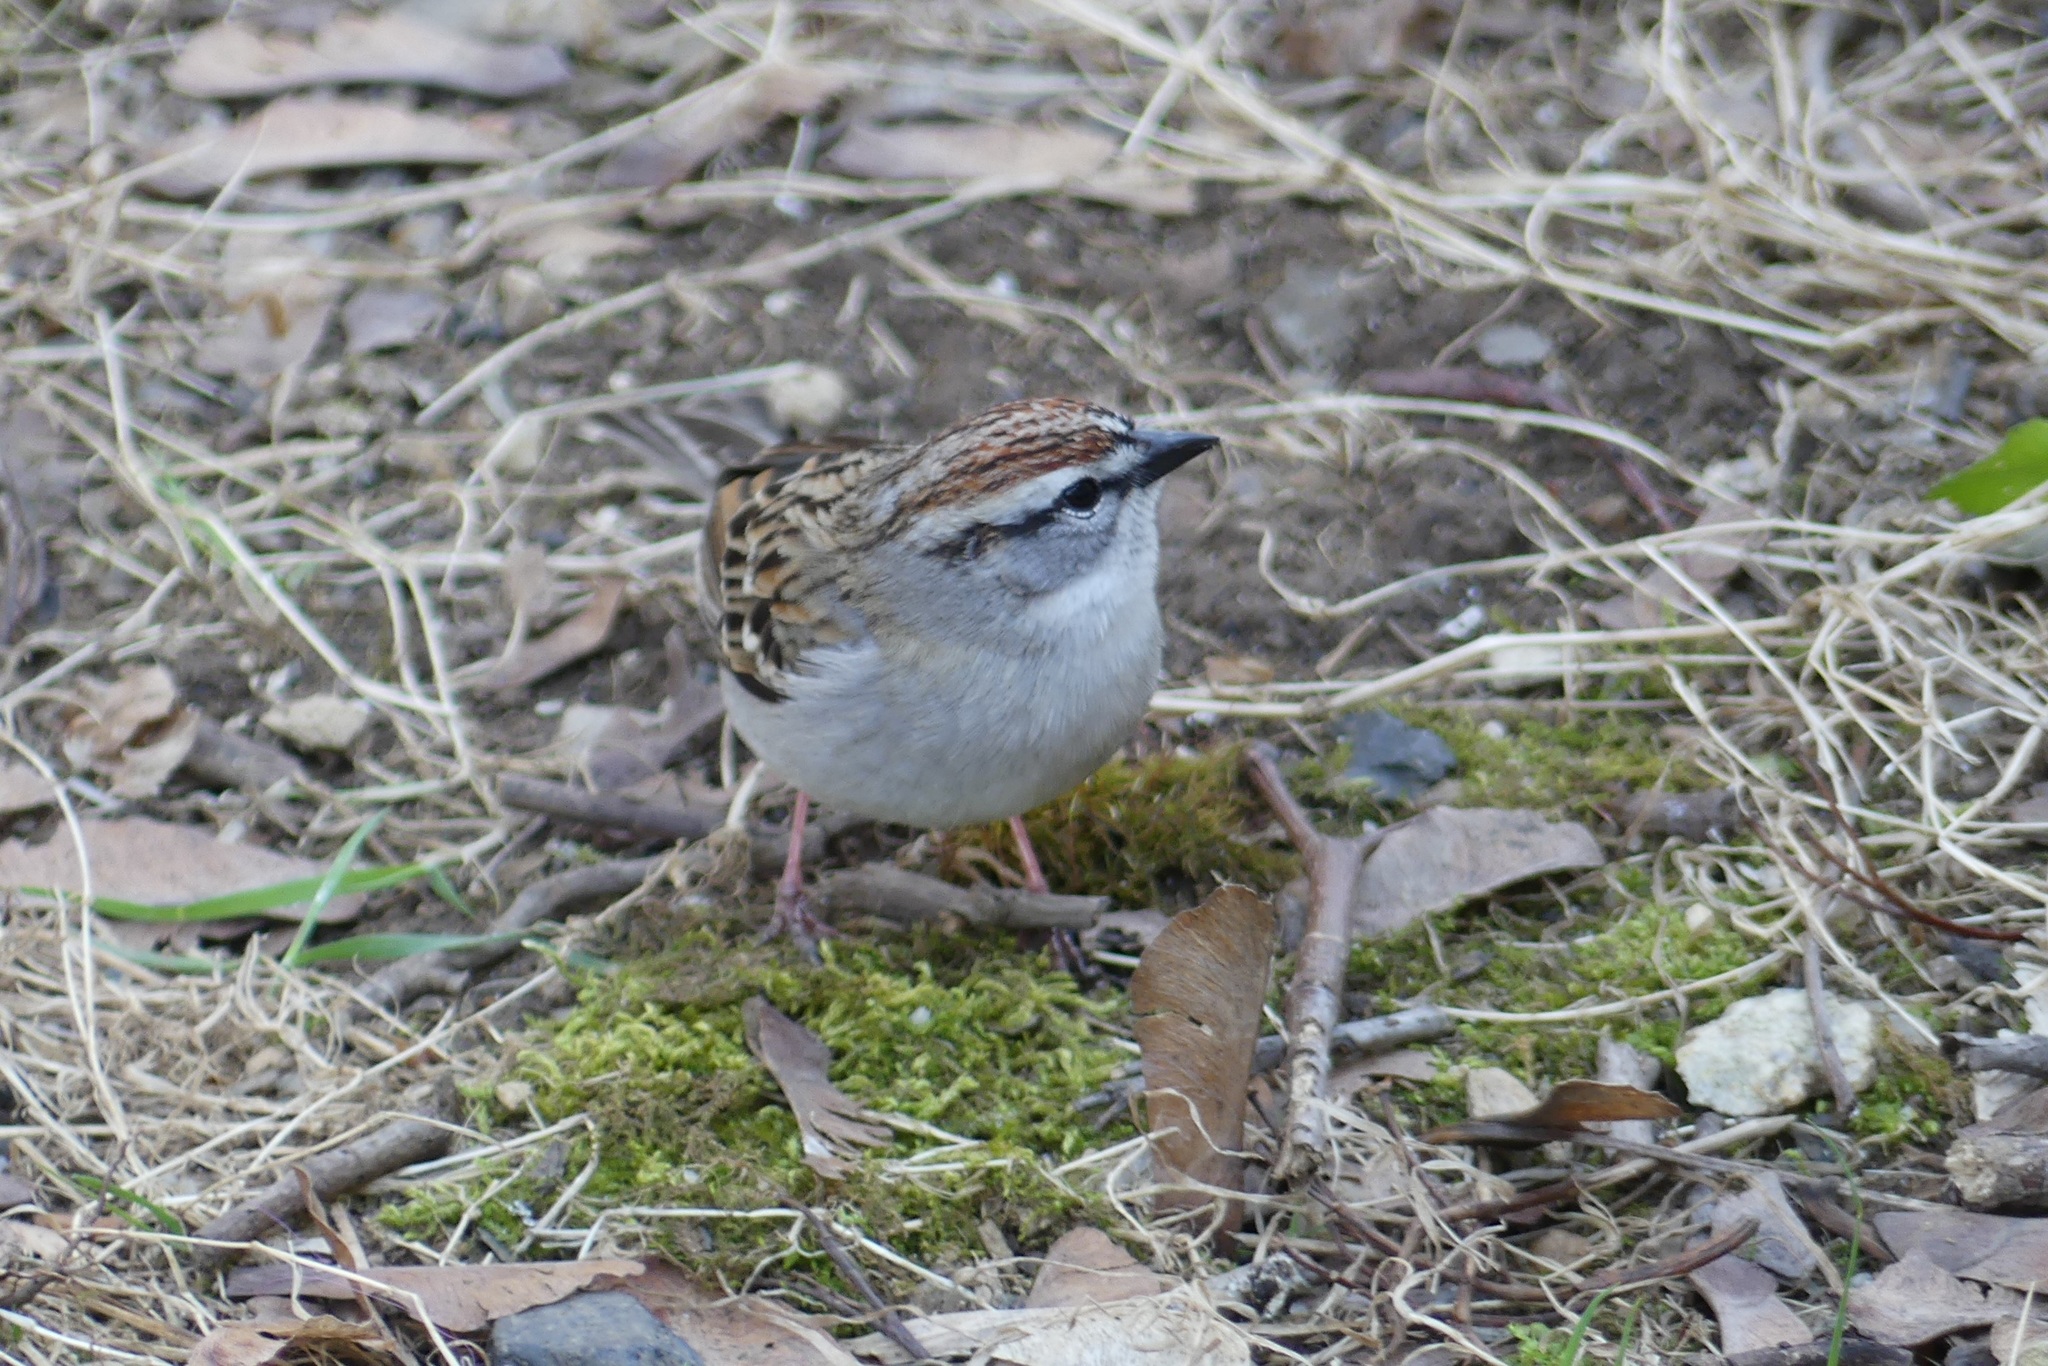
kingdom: Animalia
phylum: Chordata
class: Aves
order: Passeriformes
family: Passerellidae
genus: Spizella
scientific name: Spizella passerina
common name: Chipping sparrow
